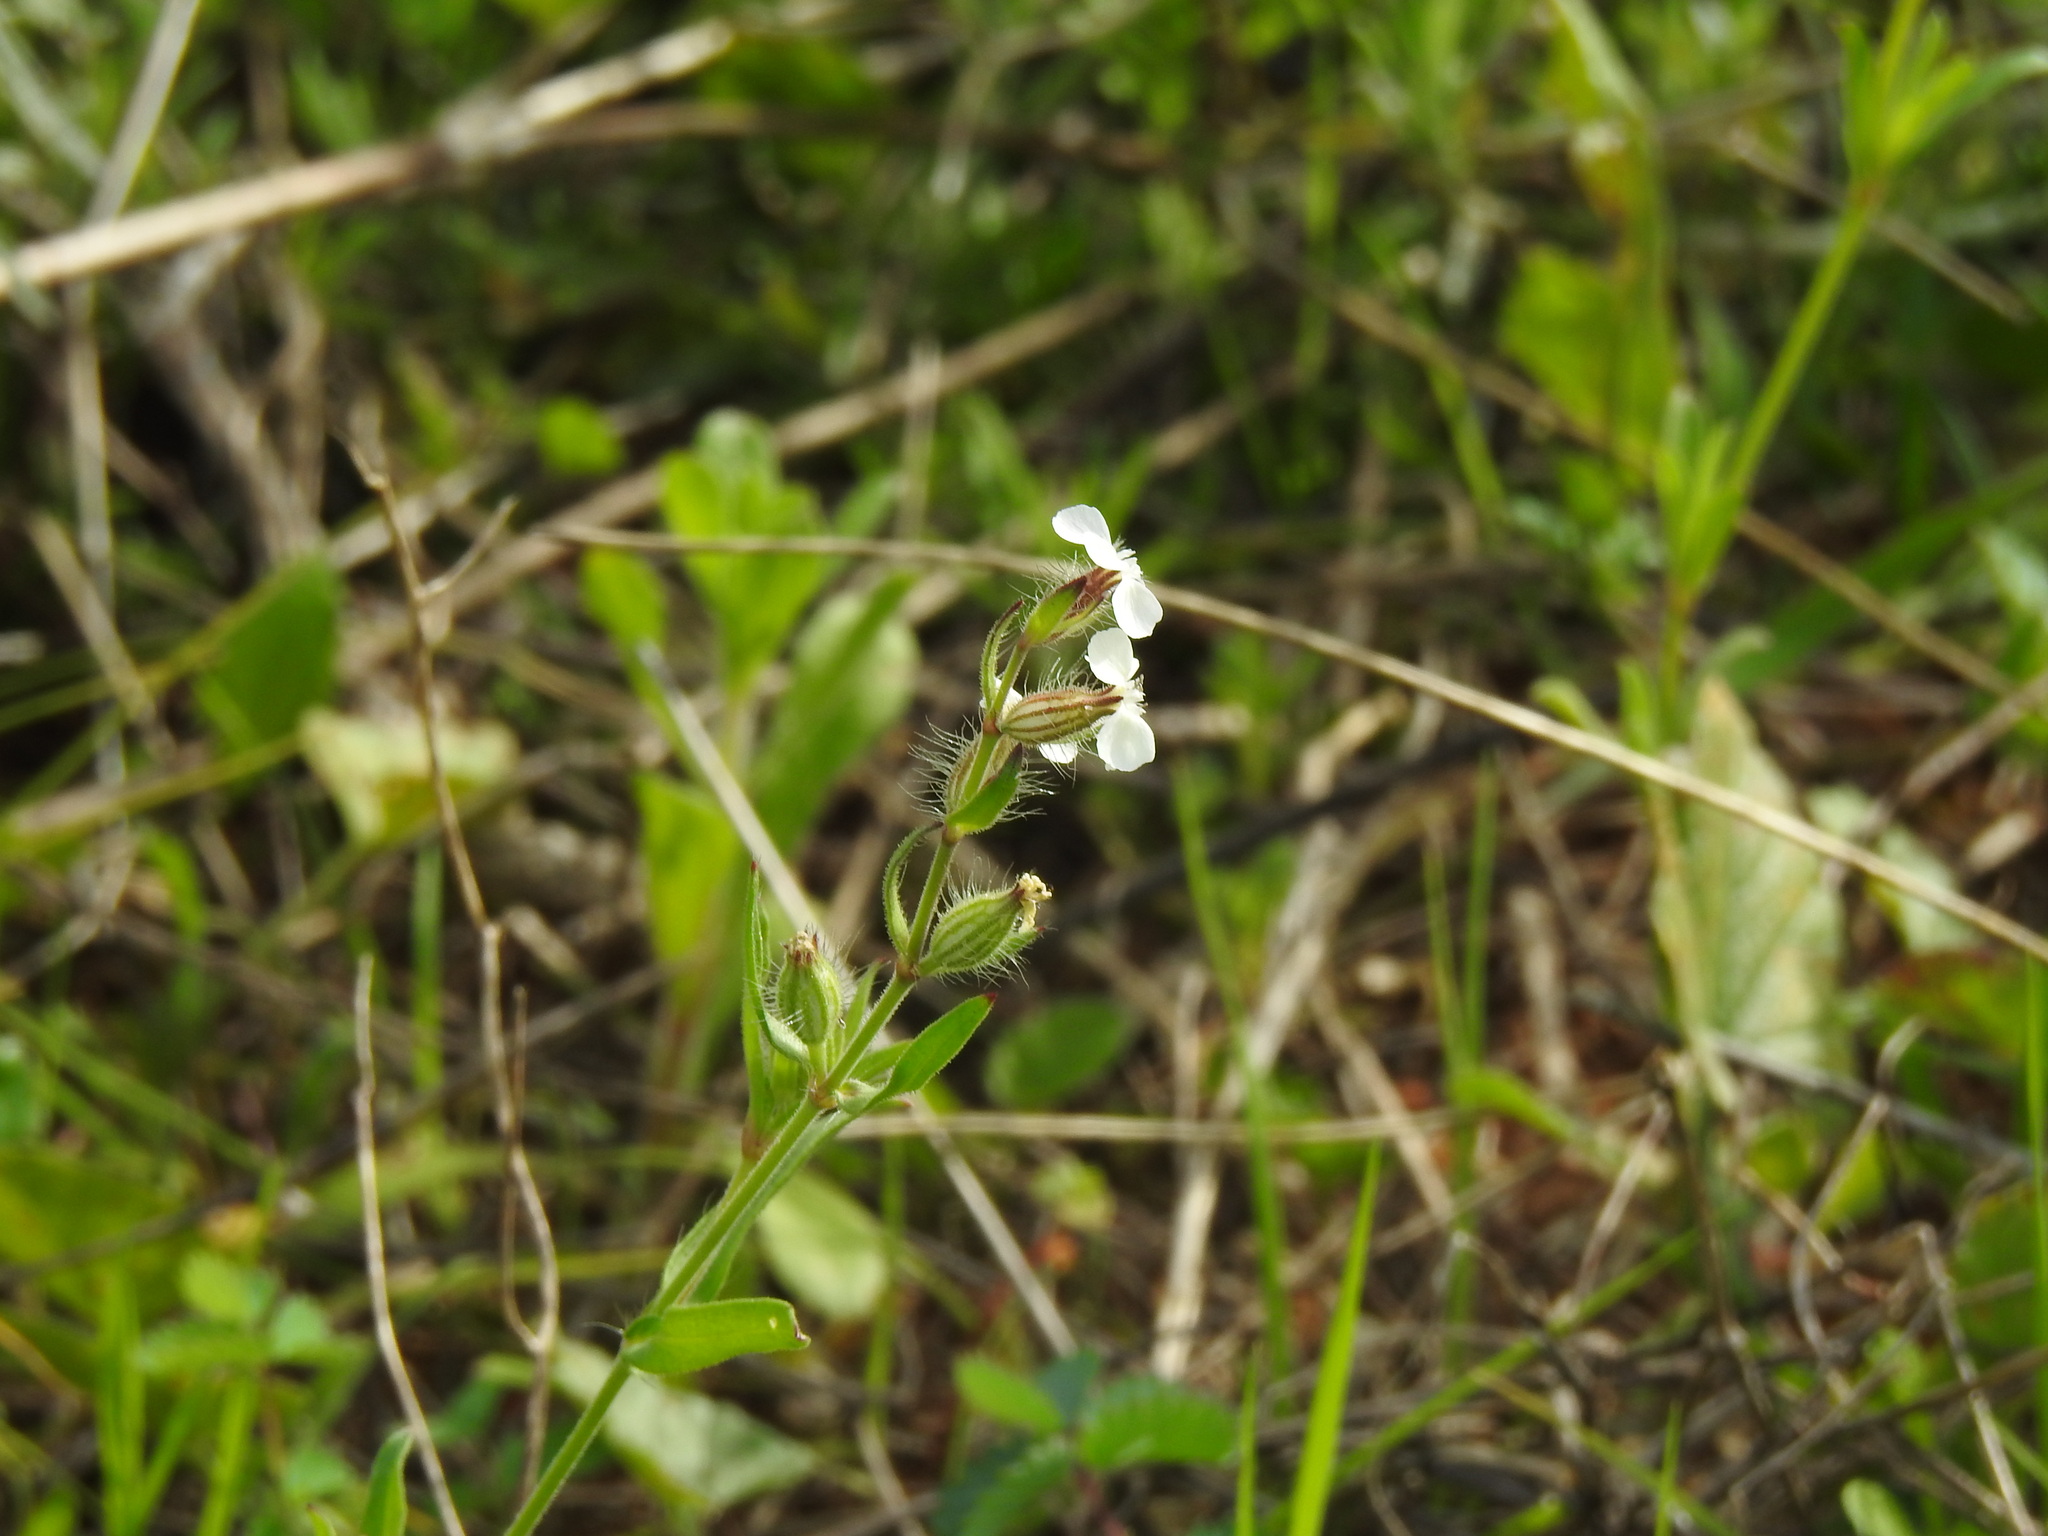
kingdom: Plantae
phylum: Tracheophyta
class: Magnoliopsida
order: Caryophyllales
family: Caryophyllaceae
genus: Silene
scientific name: Silene gallica
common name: Small-flowered catchfly
